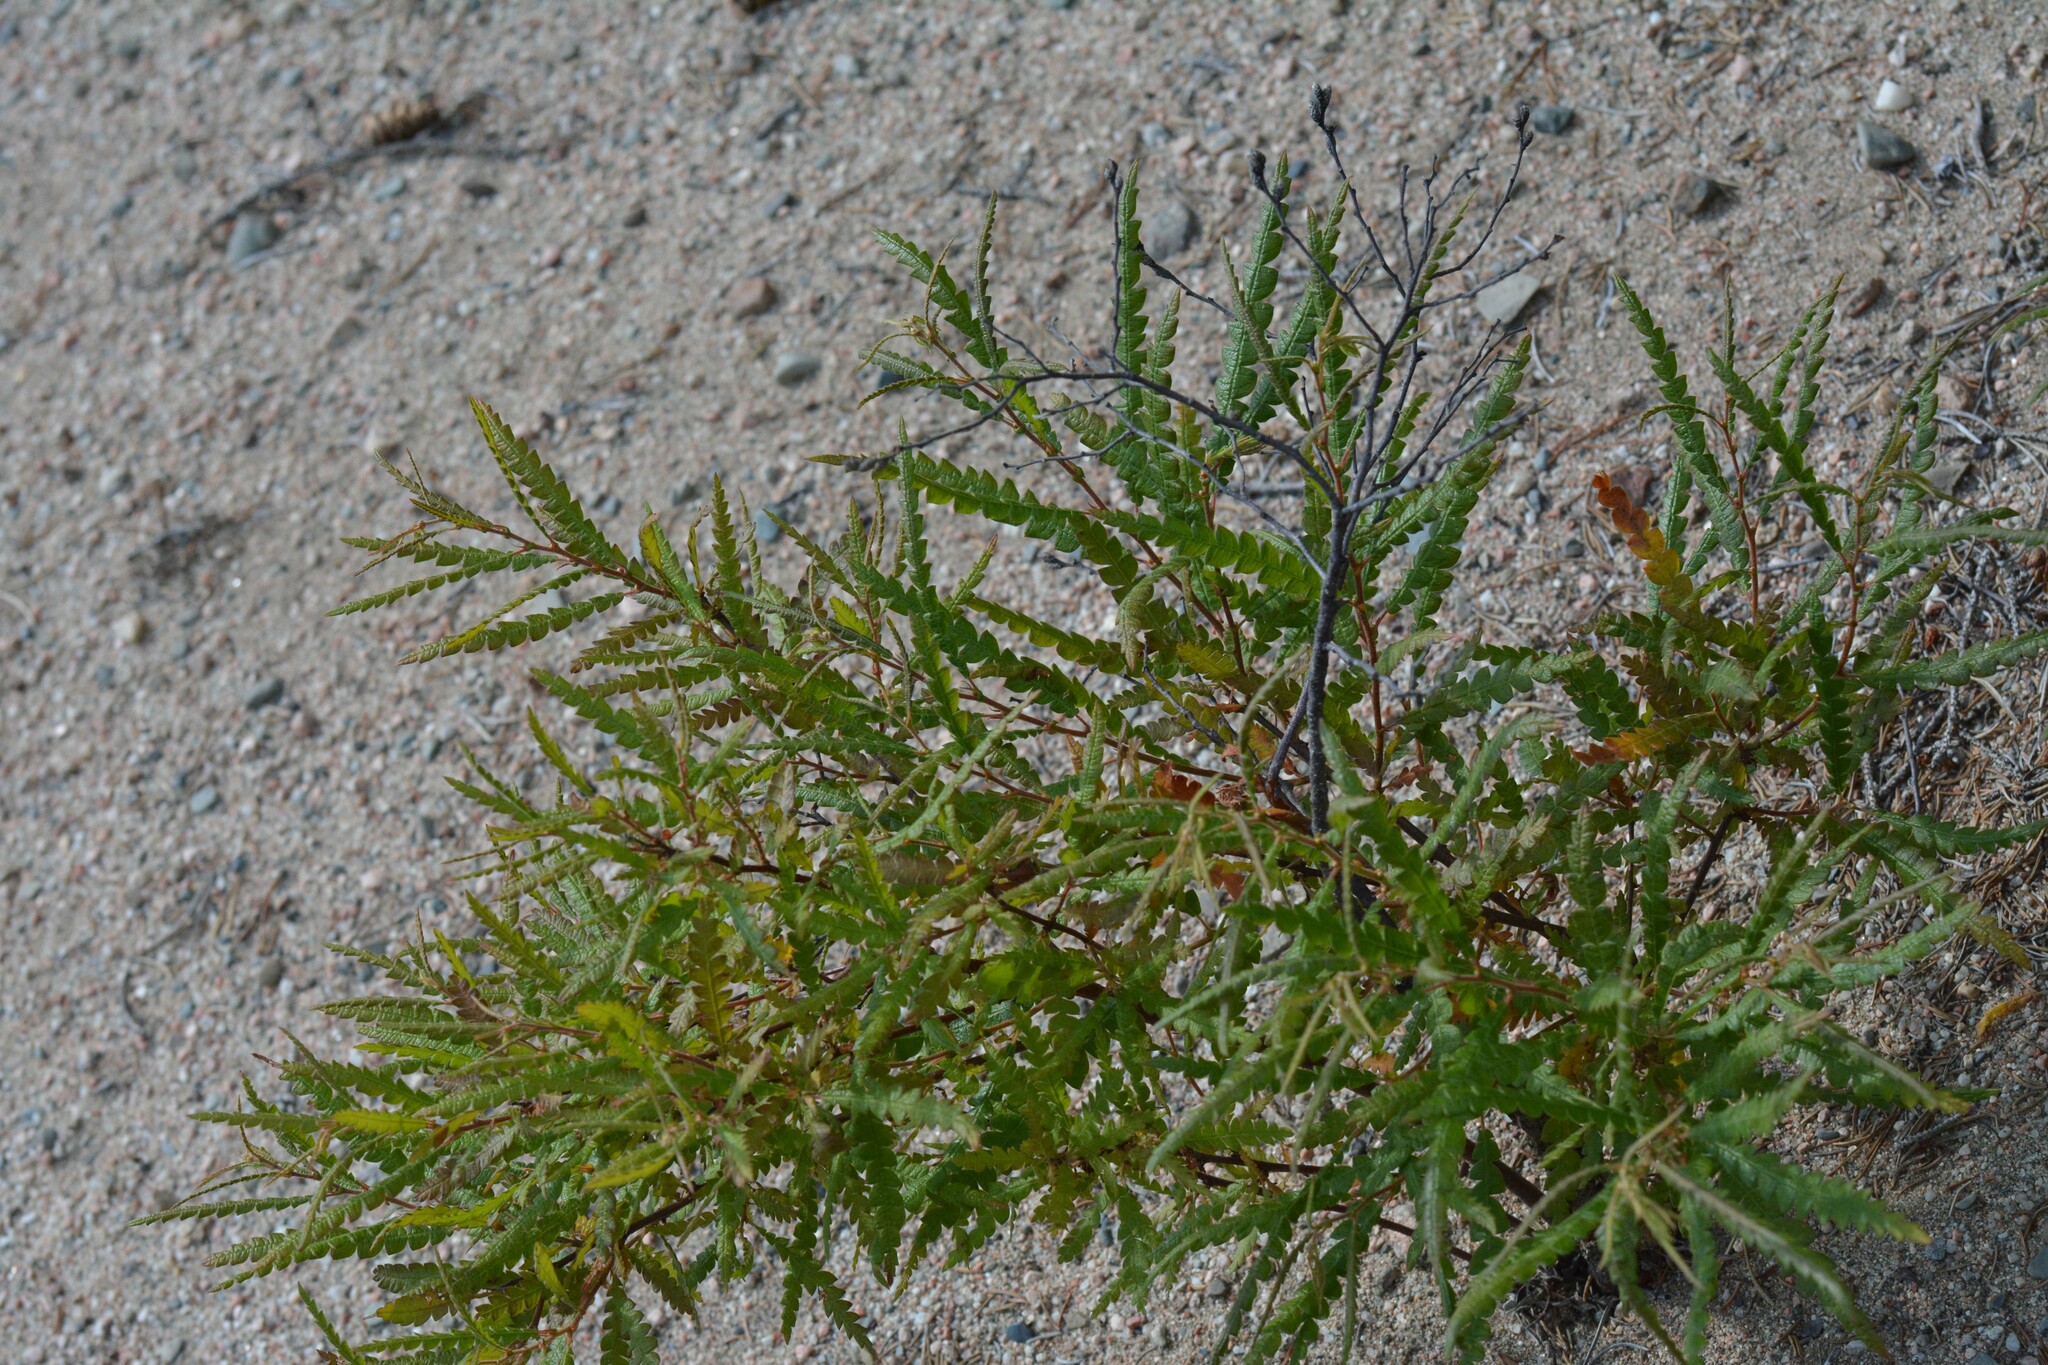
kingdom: Plantae
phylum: Tracheophyta
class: Magnoliopsida
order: Fagales
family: Myricaceae
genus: Comptonia
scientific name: Comptonia peregrina
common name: Sweet-fern
